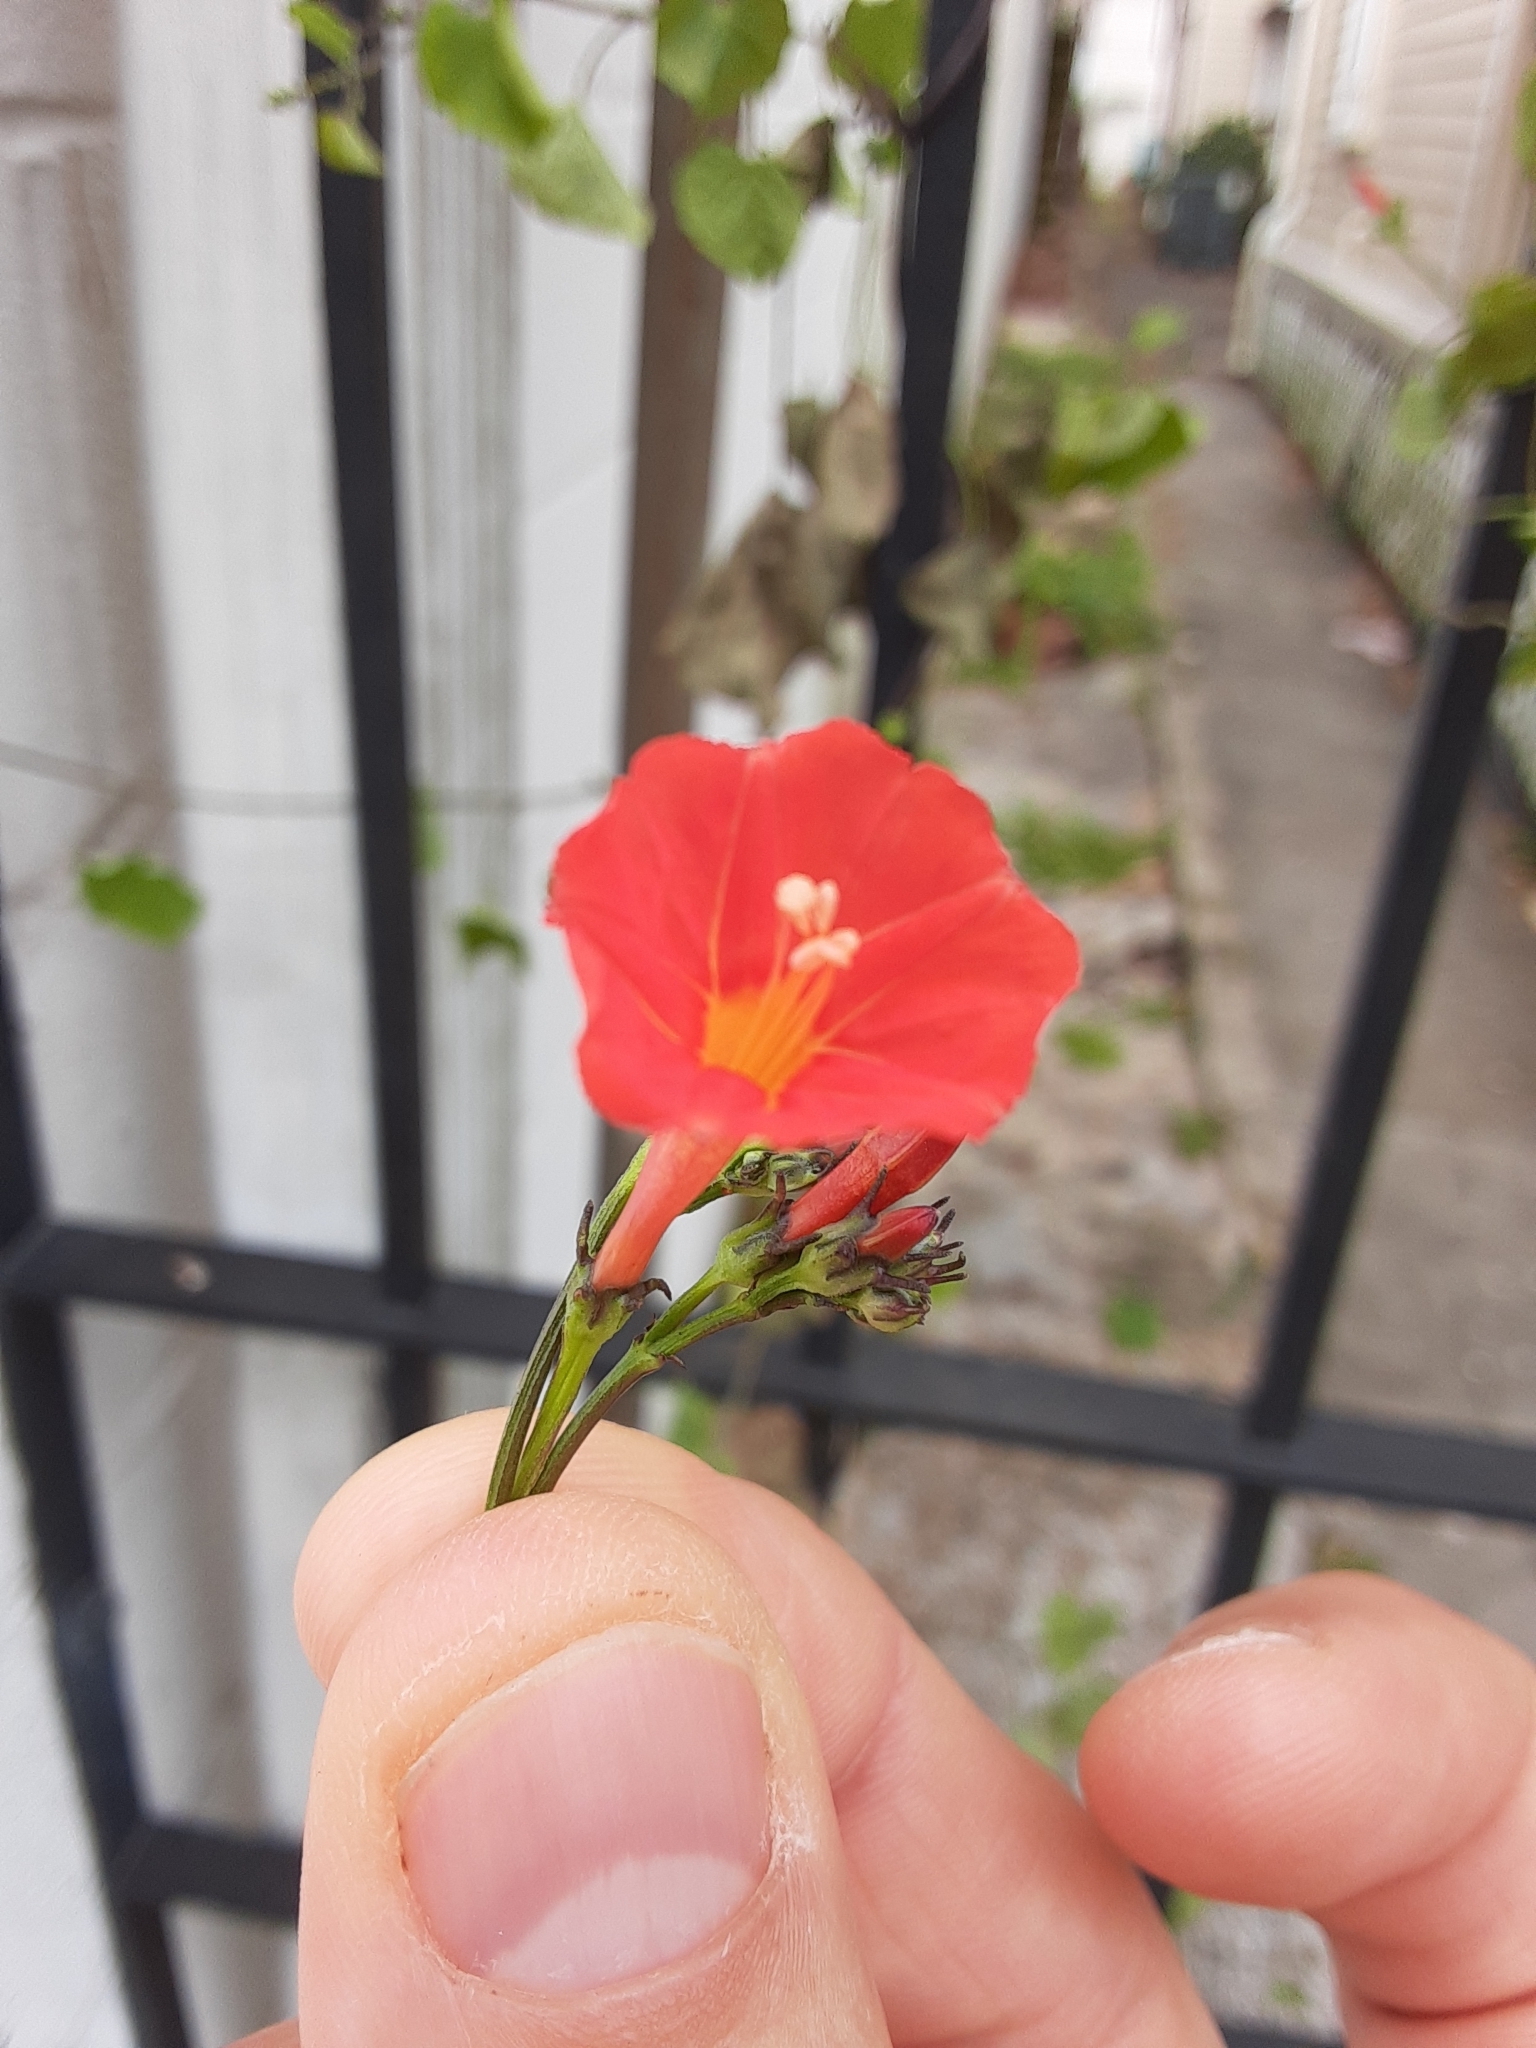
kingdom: Plantae
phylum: Tracheophyta
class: Magnoliopsida
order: Solanales
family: Convolvulaceae
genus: Ipomoea
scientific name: Ipomoea coccinea
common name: Red morning-glory
